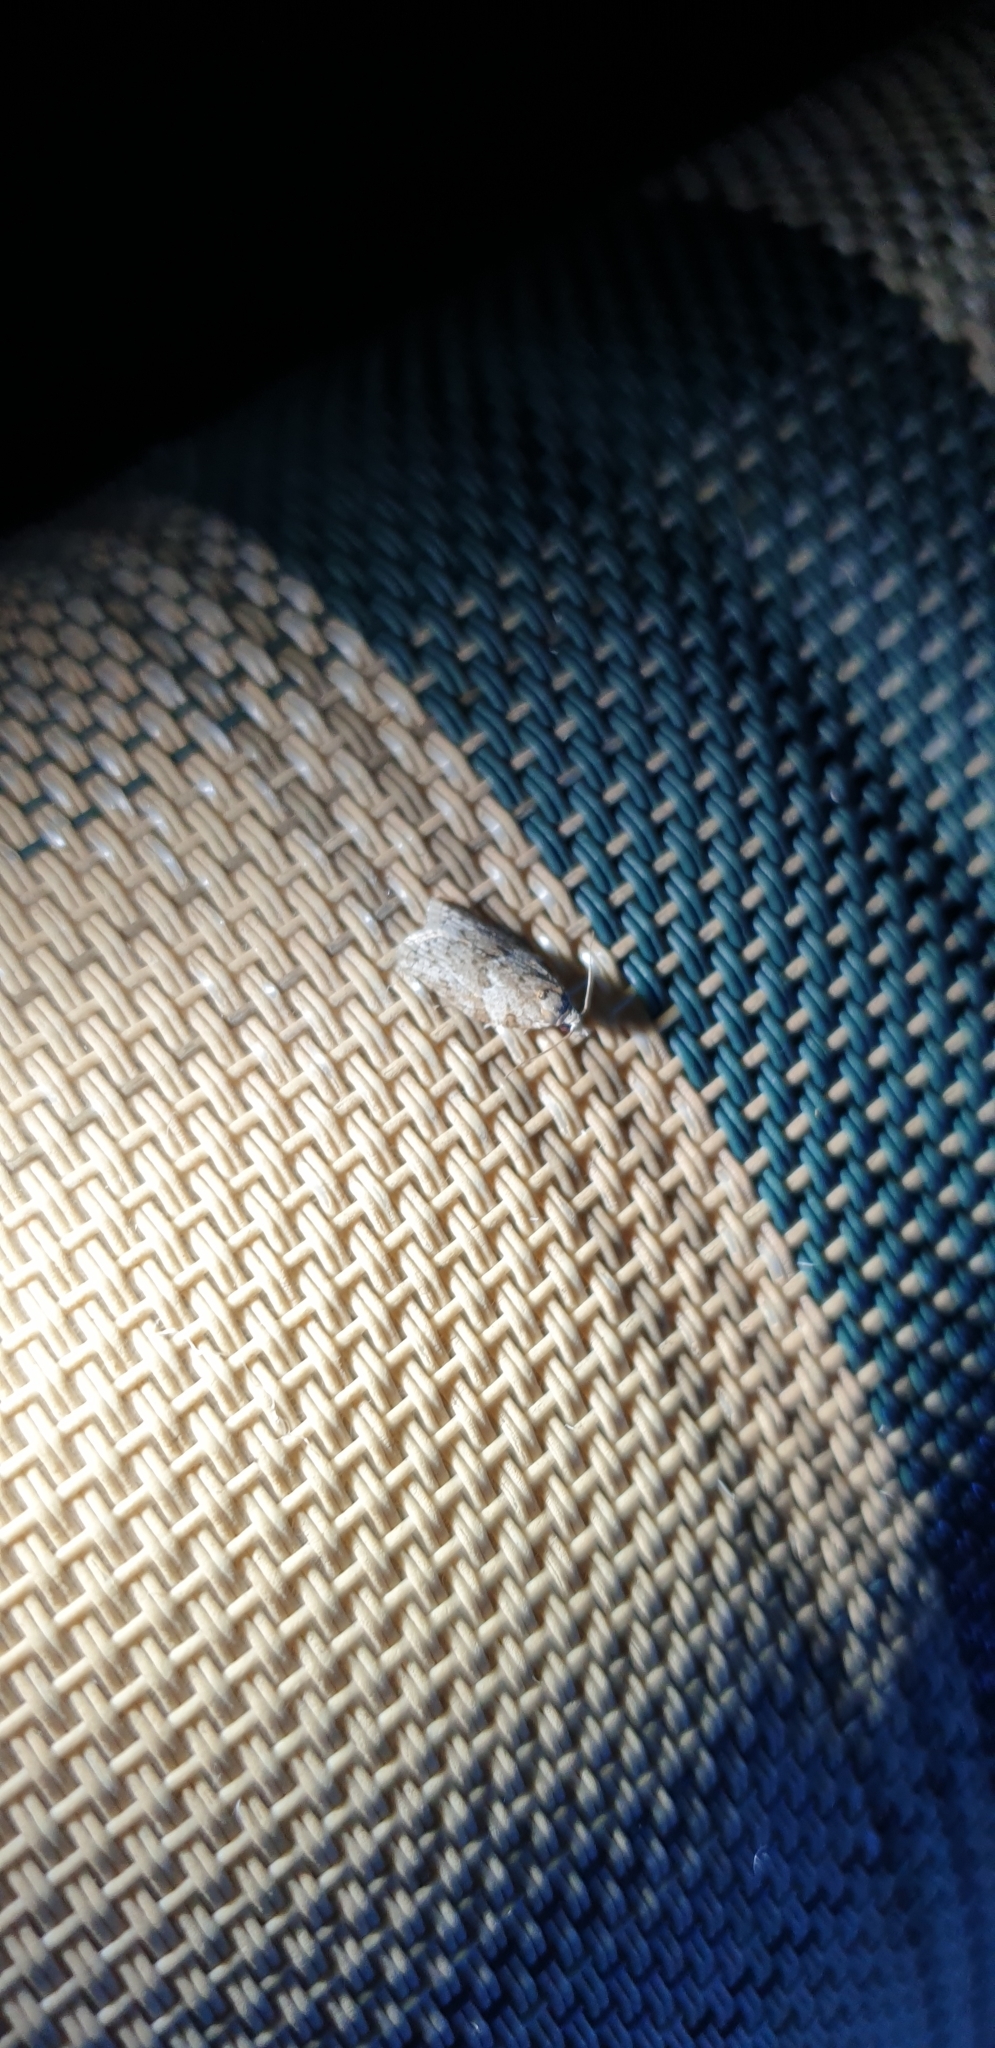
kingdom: Animalia
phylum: Arthropoda
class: Insecta
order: Lepidoptera
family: Tortricidae
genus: Isotenes
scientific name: Isotenes miserana
